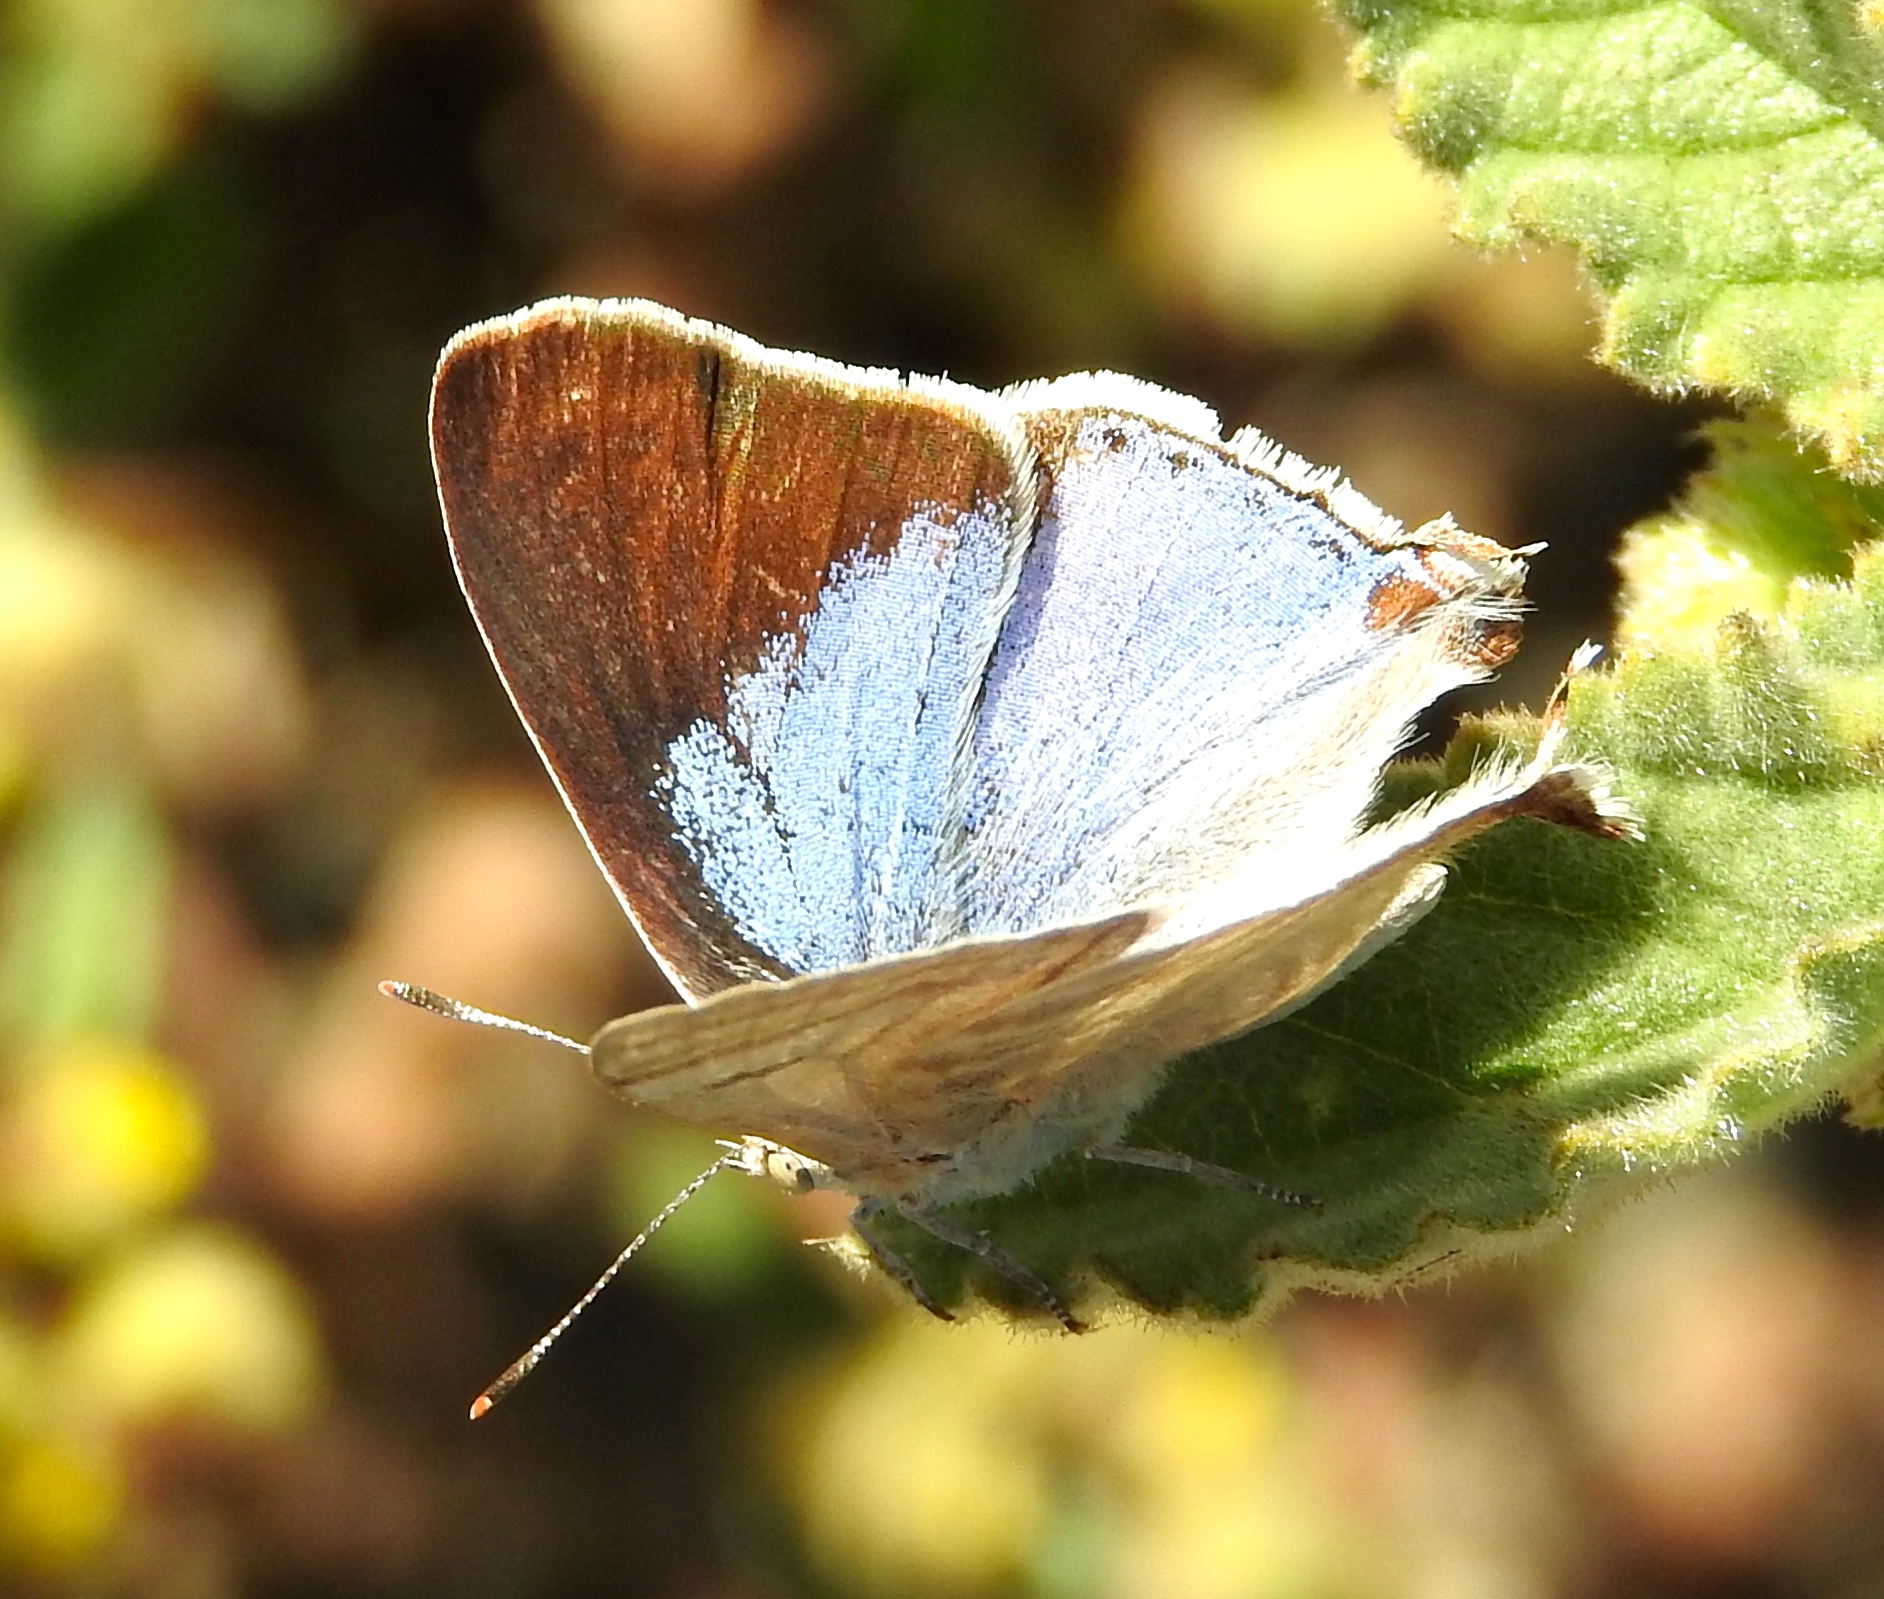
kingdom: Animalia
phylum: Arthropoda
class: Insecta
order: Lepidoptera
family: Lycaenidae
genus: Dolymorpha
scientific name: Dolymorpha jada
